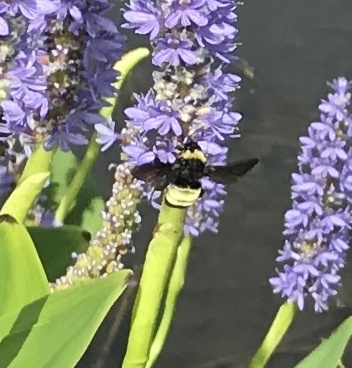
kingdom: Animalia
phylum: Arthropoda
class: Insecta
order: Hymenoptera
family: Apidae
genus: Bombus
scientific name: Bombus pensylvanicus
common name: Bumble bee
